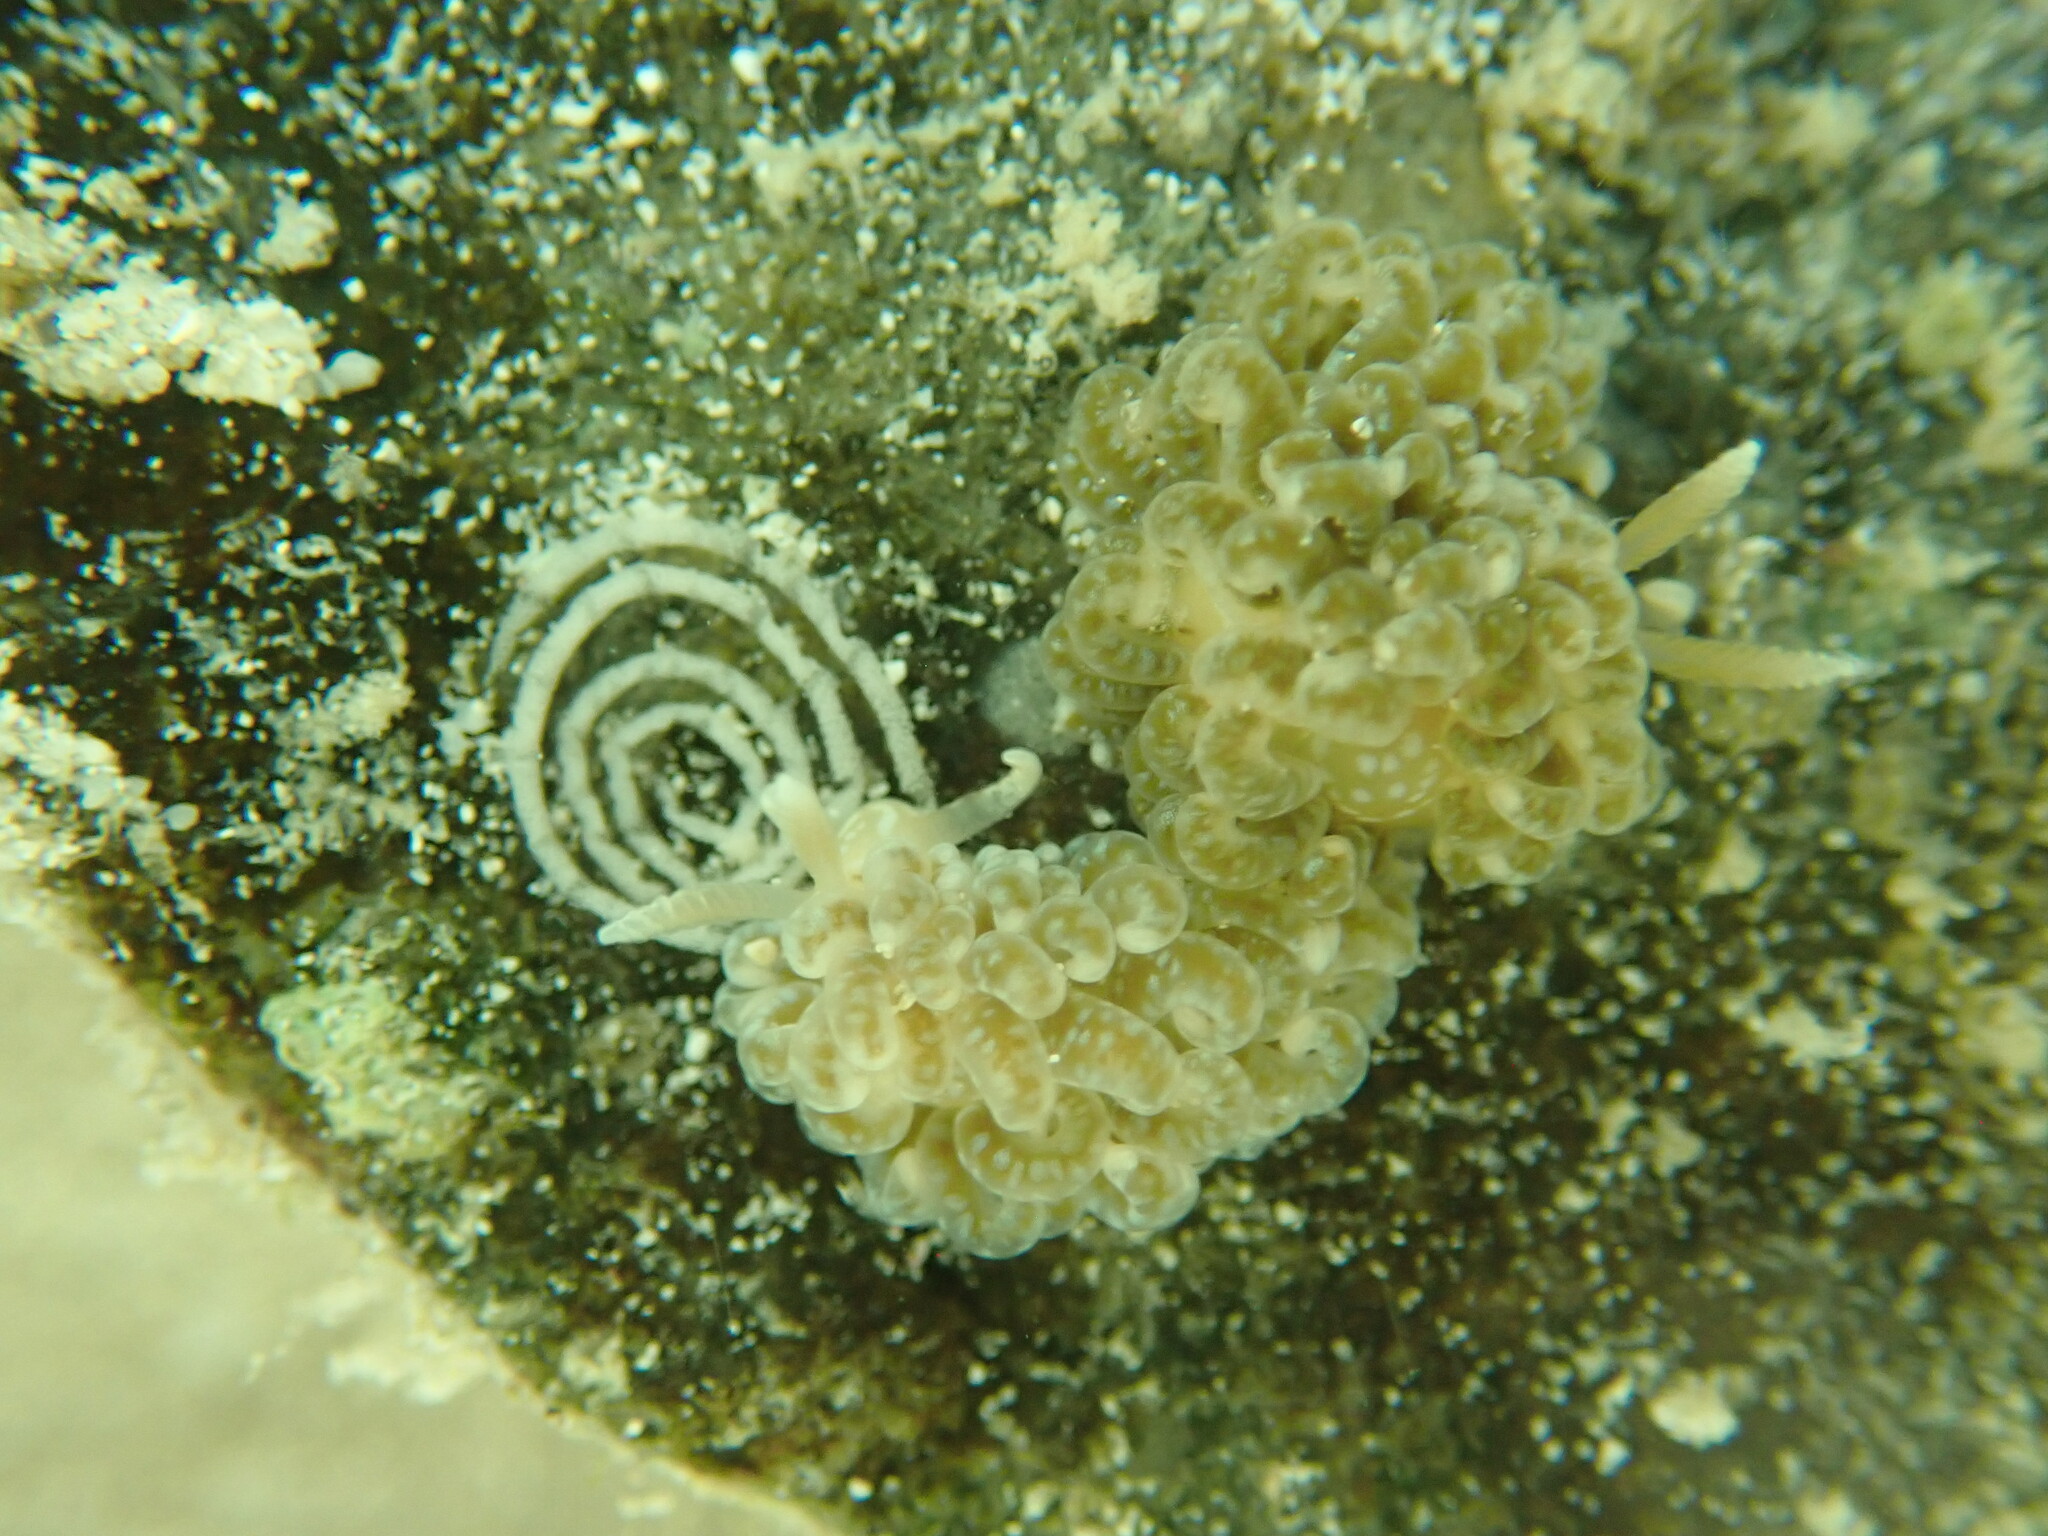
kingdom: Animalia
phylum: Mollusca
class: Gastropoda
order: Nudibranchia
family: Aeolidiidae
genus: Spurilla
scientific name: Spurilla braziliana
